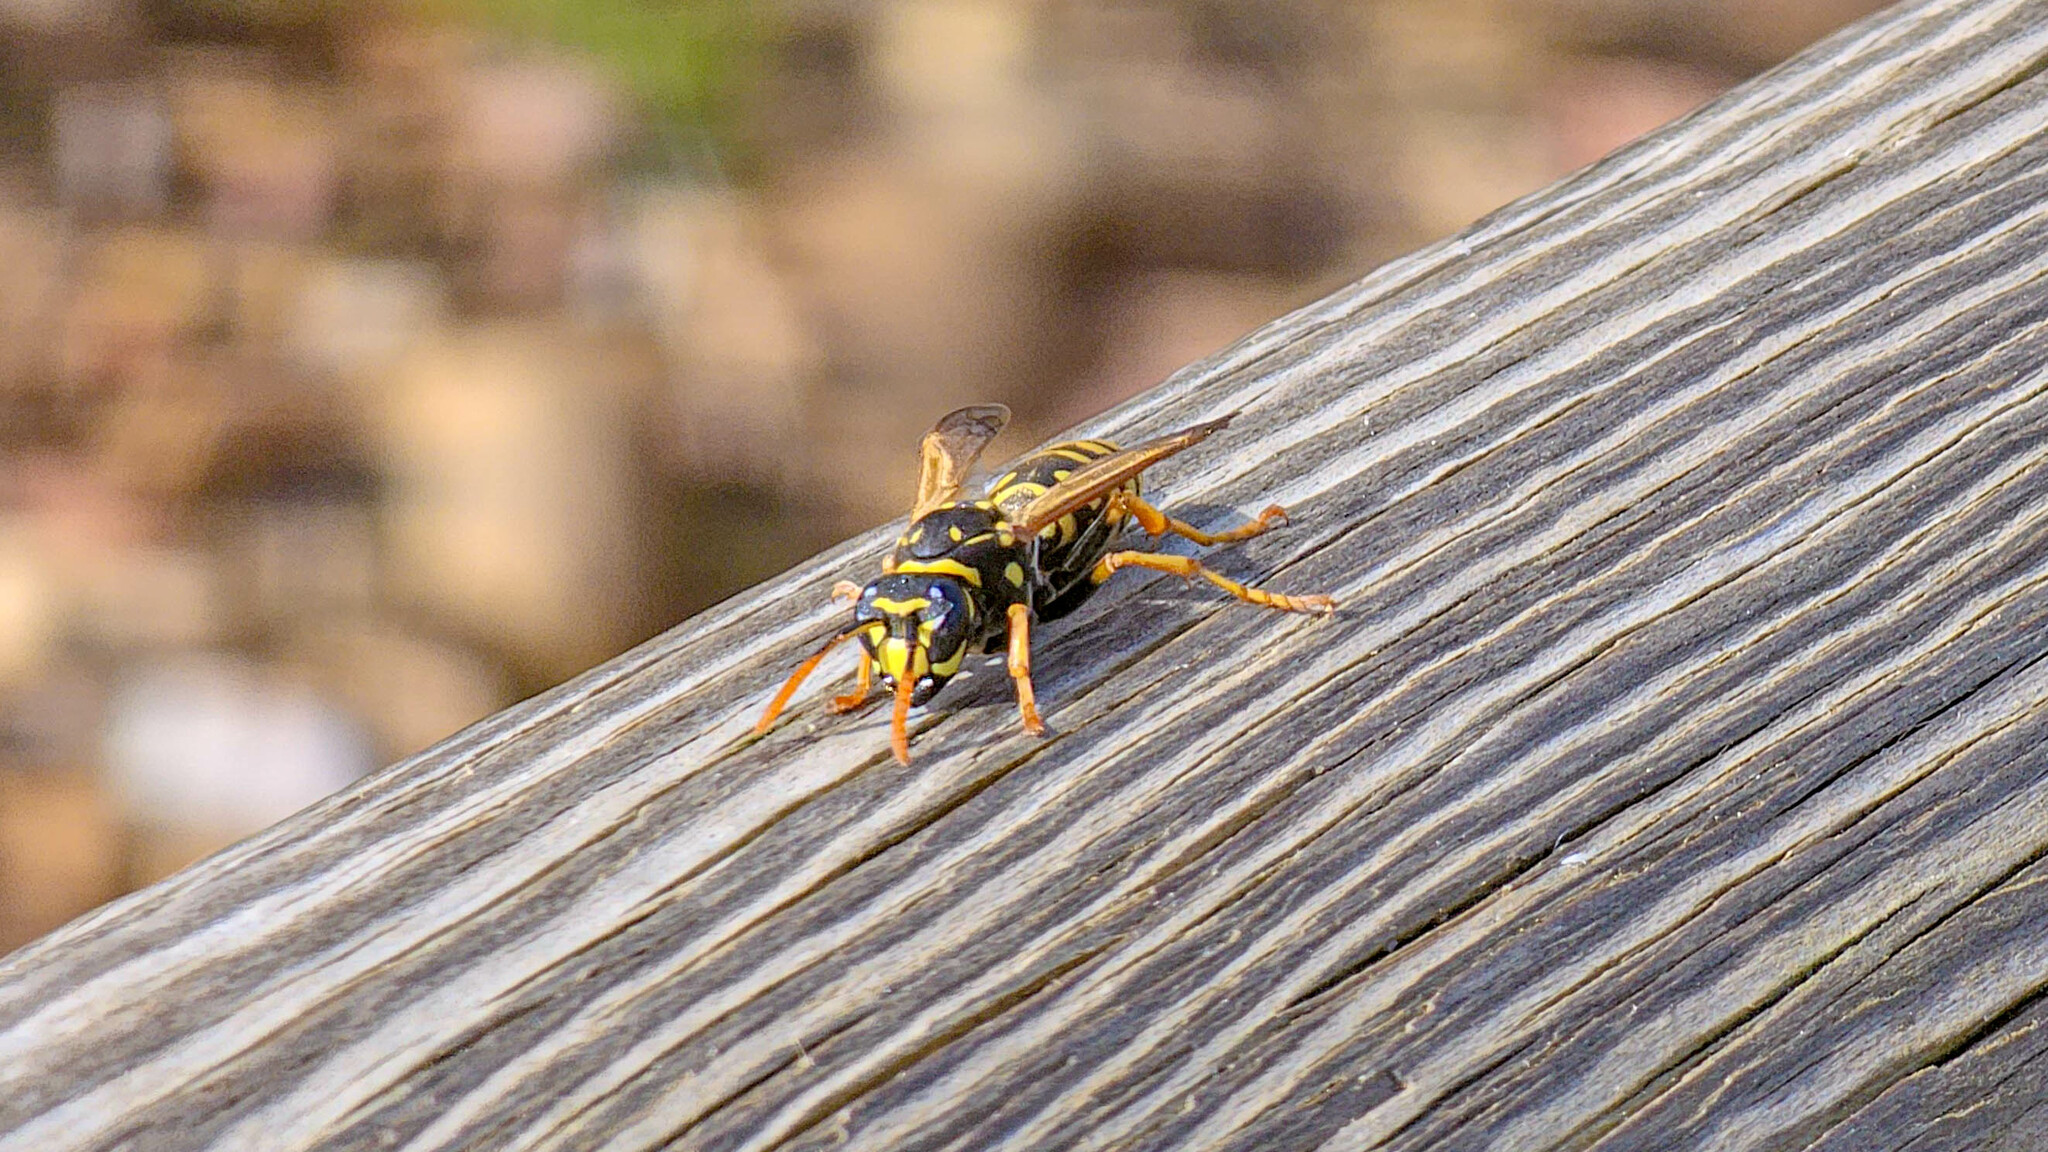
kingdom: Animalia
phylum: Arthropoda
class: Insecta
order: Hymenoptera
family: Eumenidae
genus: Polistes
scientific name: Polistes dominula
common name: Paper wasp
